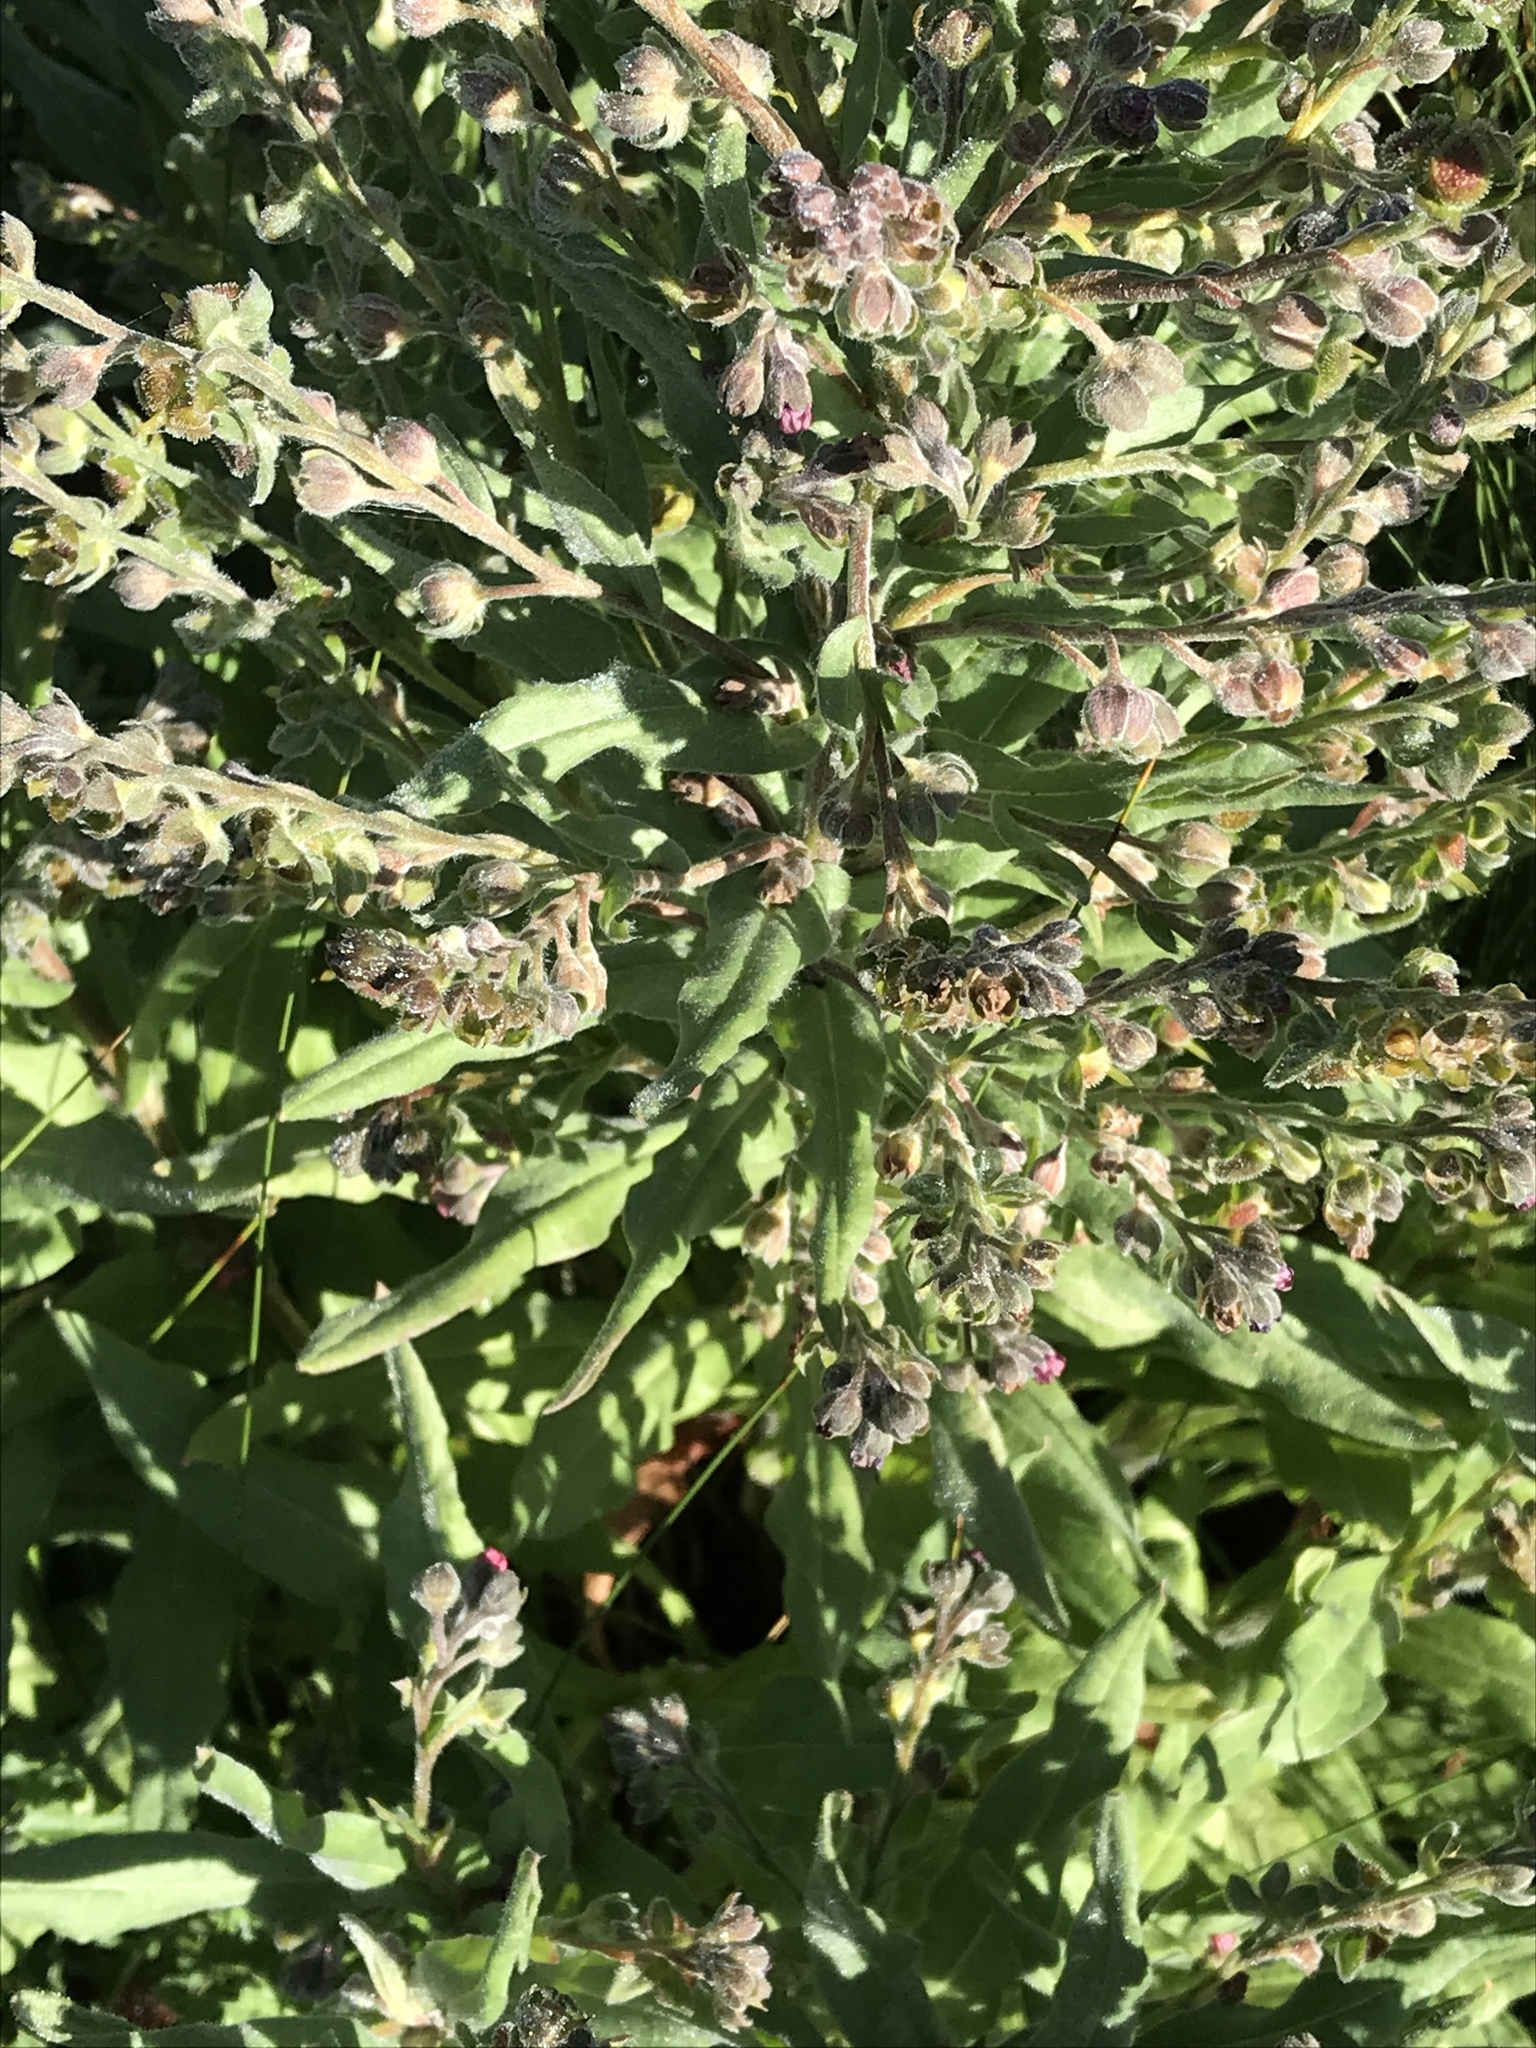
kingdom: Plantae
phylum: Tracheophyta
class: Magnoliopsida
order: Boraginales
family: Boraginaceae
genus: Cynoglossum
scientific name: Cynoglossum officinale
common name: Hound's-tongue
